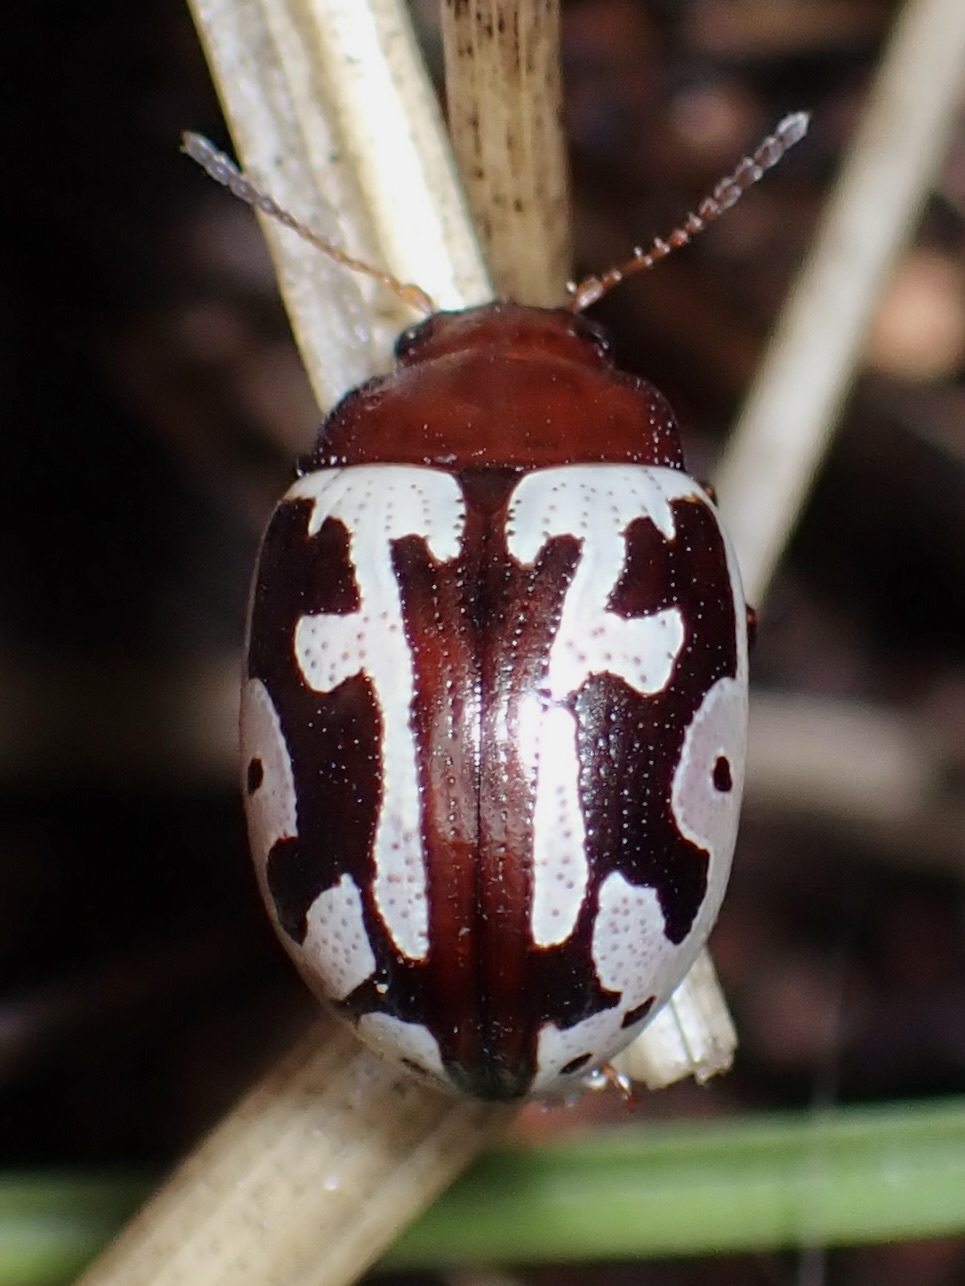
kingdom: Animalia
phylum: Arthropoda
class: Insecta
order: Coleoptera
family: Chrysomelidae
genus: Calligrapha
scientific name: Calligrapha
